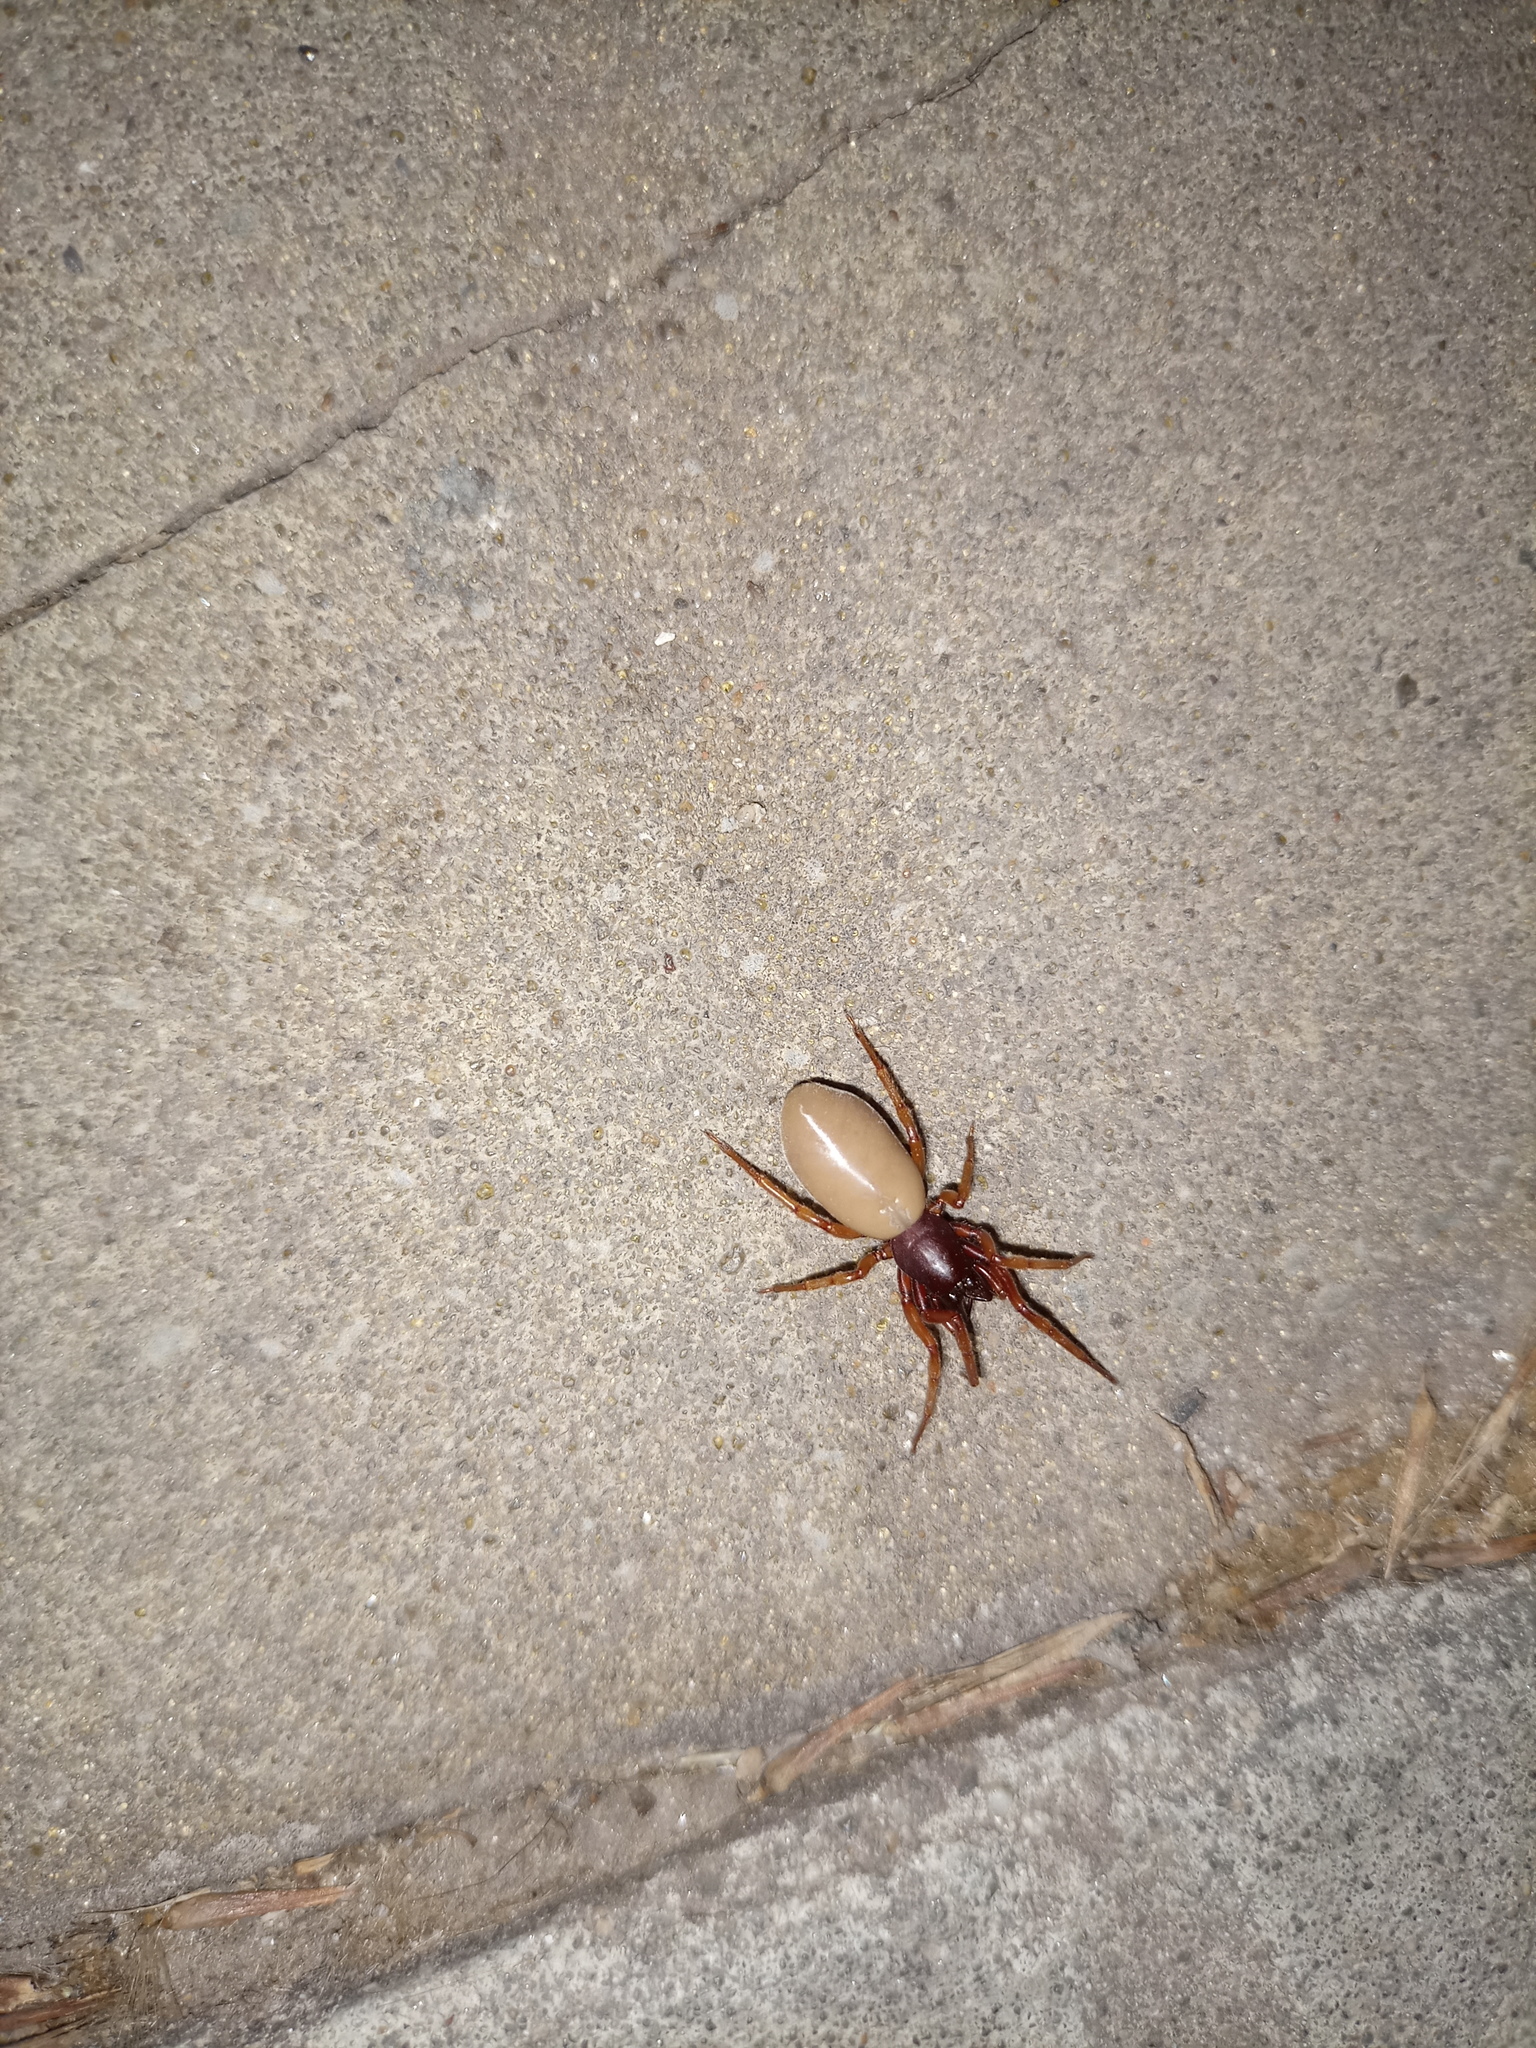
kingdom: Animalia
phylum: Arthropoda
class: Arachnida
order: Araneae
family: Dysderidae
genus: Dysdera
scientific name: Dysdera crocata
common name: Woodlouse spider
